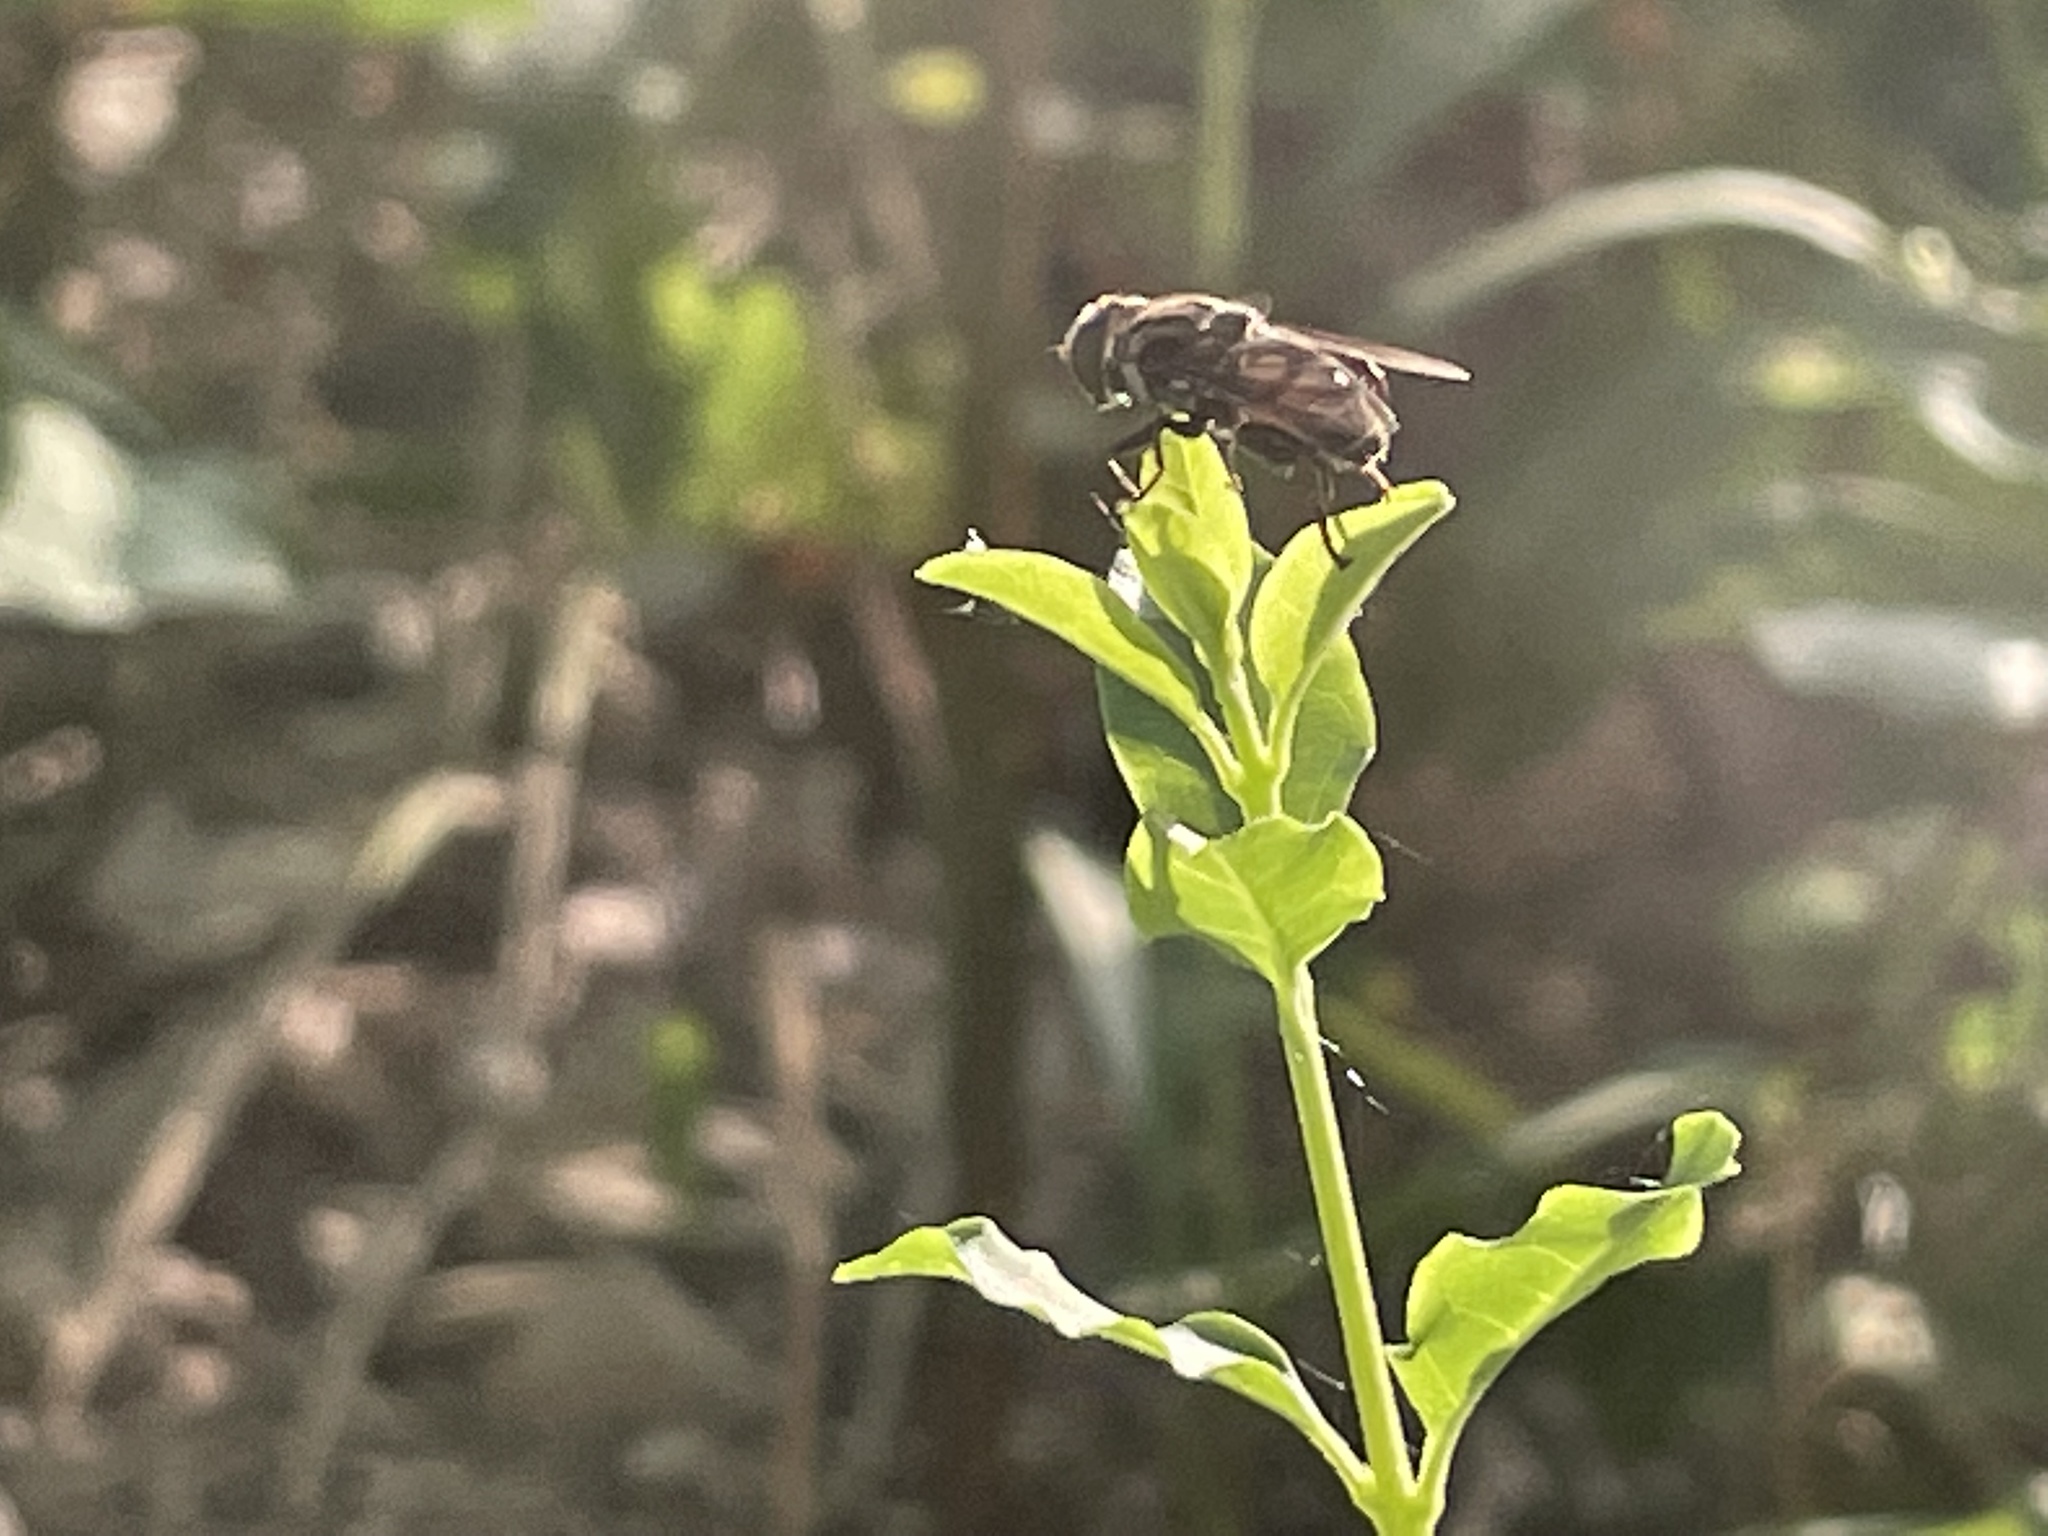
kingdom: Animalia
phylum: Arthropoda
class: Insecta
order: Diptera
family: Syrphidae
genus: Palpada
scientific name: Palpada furcata
